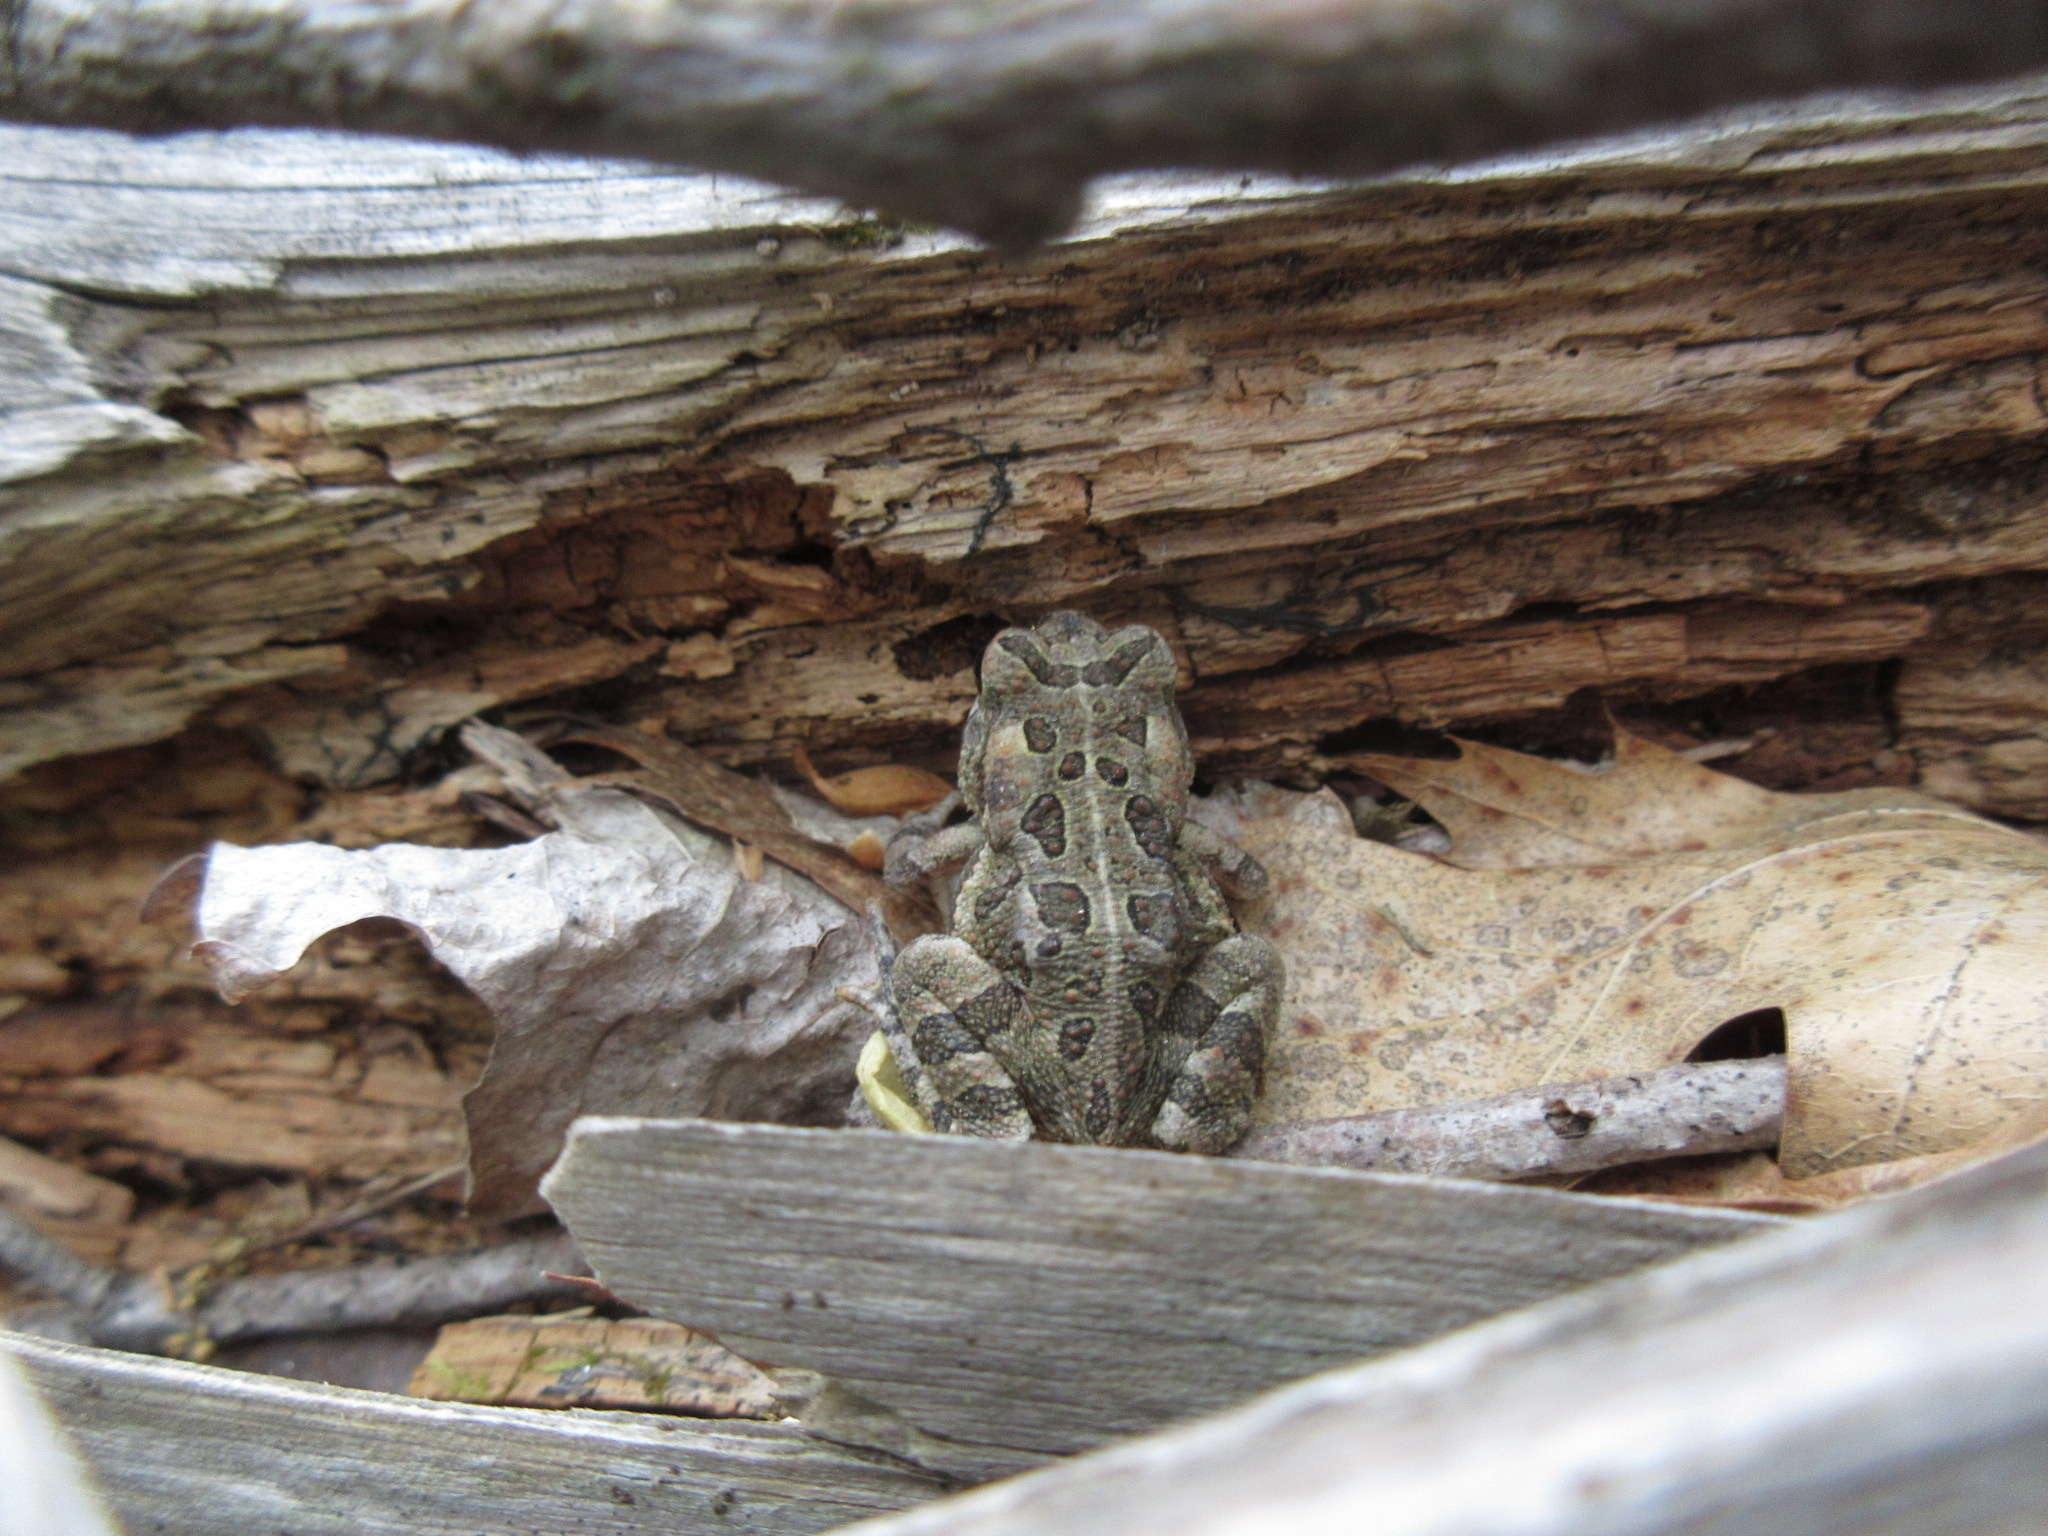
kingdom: Animalia
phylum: Chordata
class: Amphibia
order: Anura
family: Bufonidae
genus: Anaxyrus
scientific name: Anaxyrus fowleri
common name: Fowler's toad
